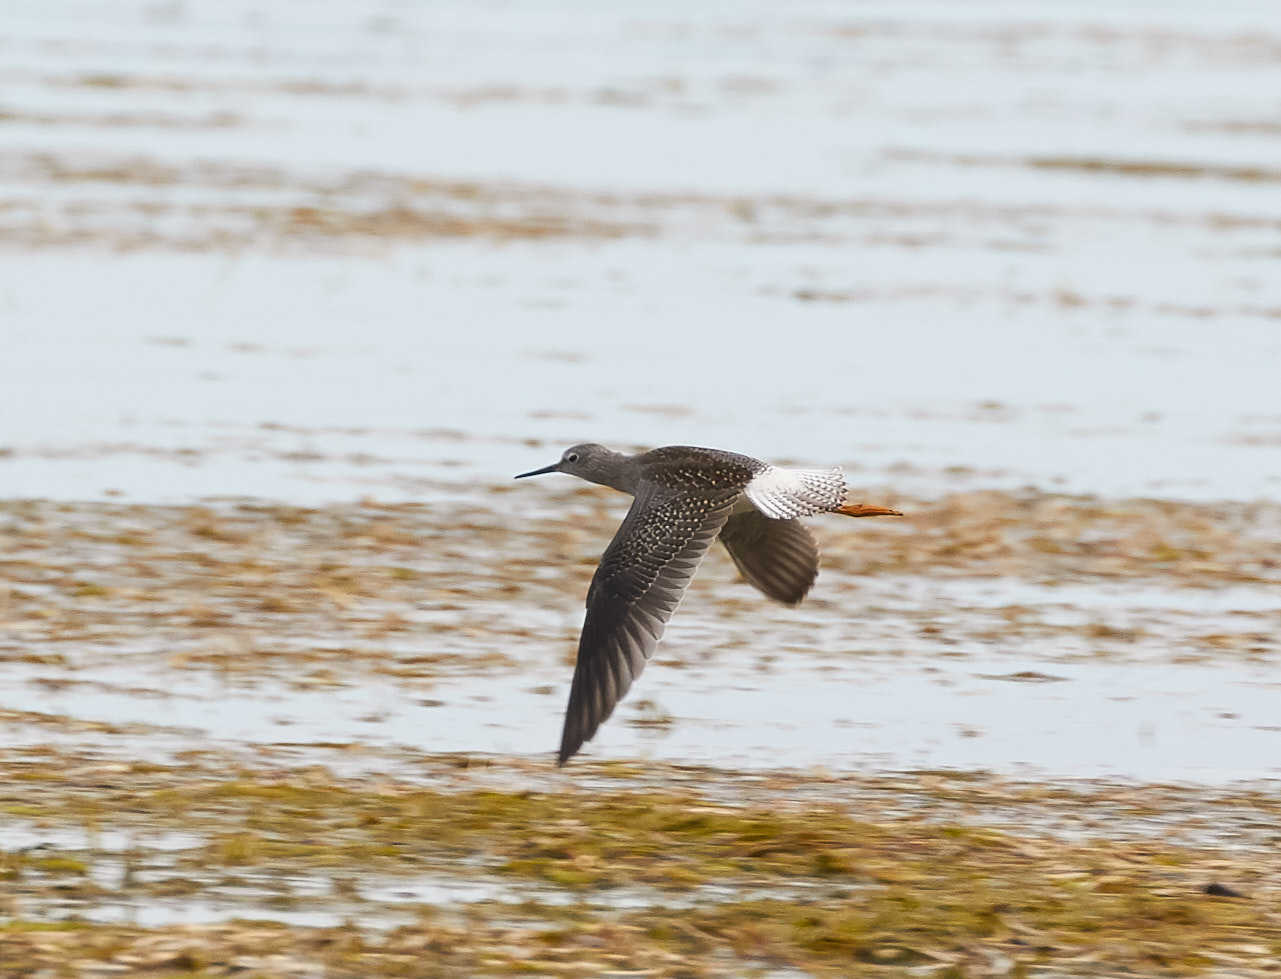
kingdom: Animalia
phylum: Chordata
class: Aves
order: Charadriiformes
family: Scolopacidae
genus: Tringa
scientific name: Tringa flavipes
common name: Lesser yellowlegs
